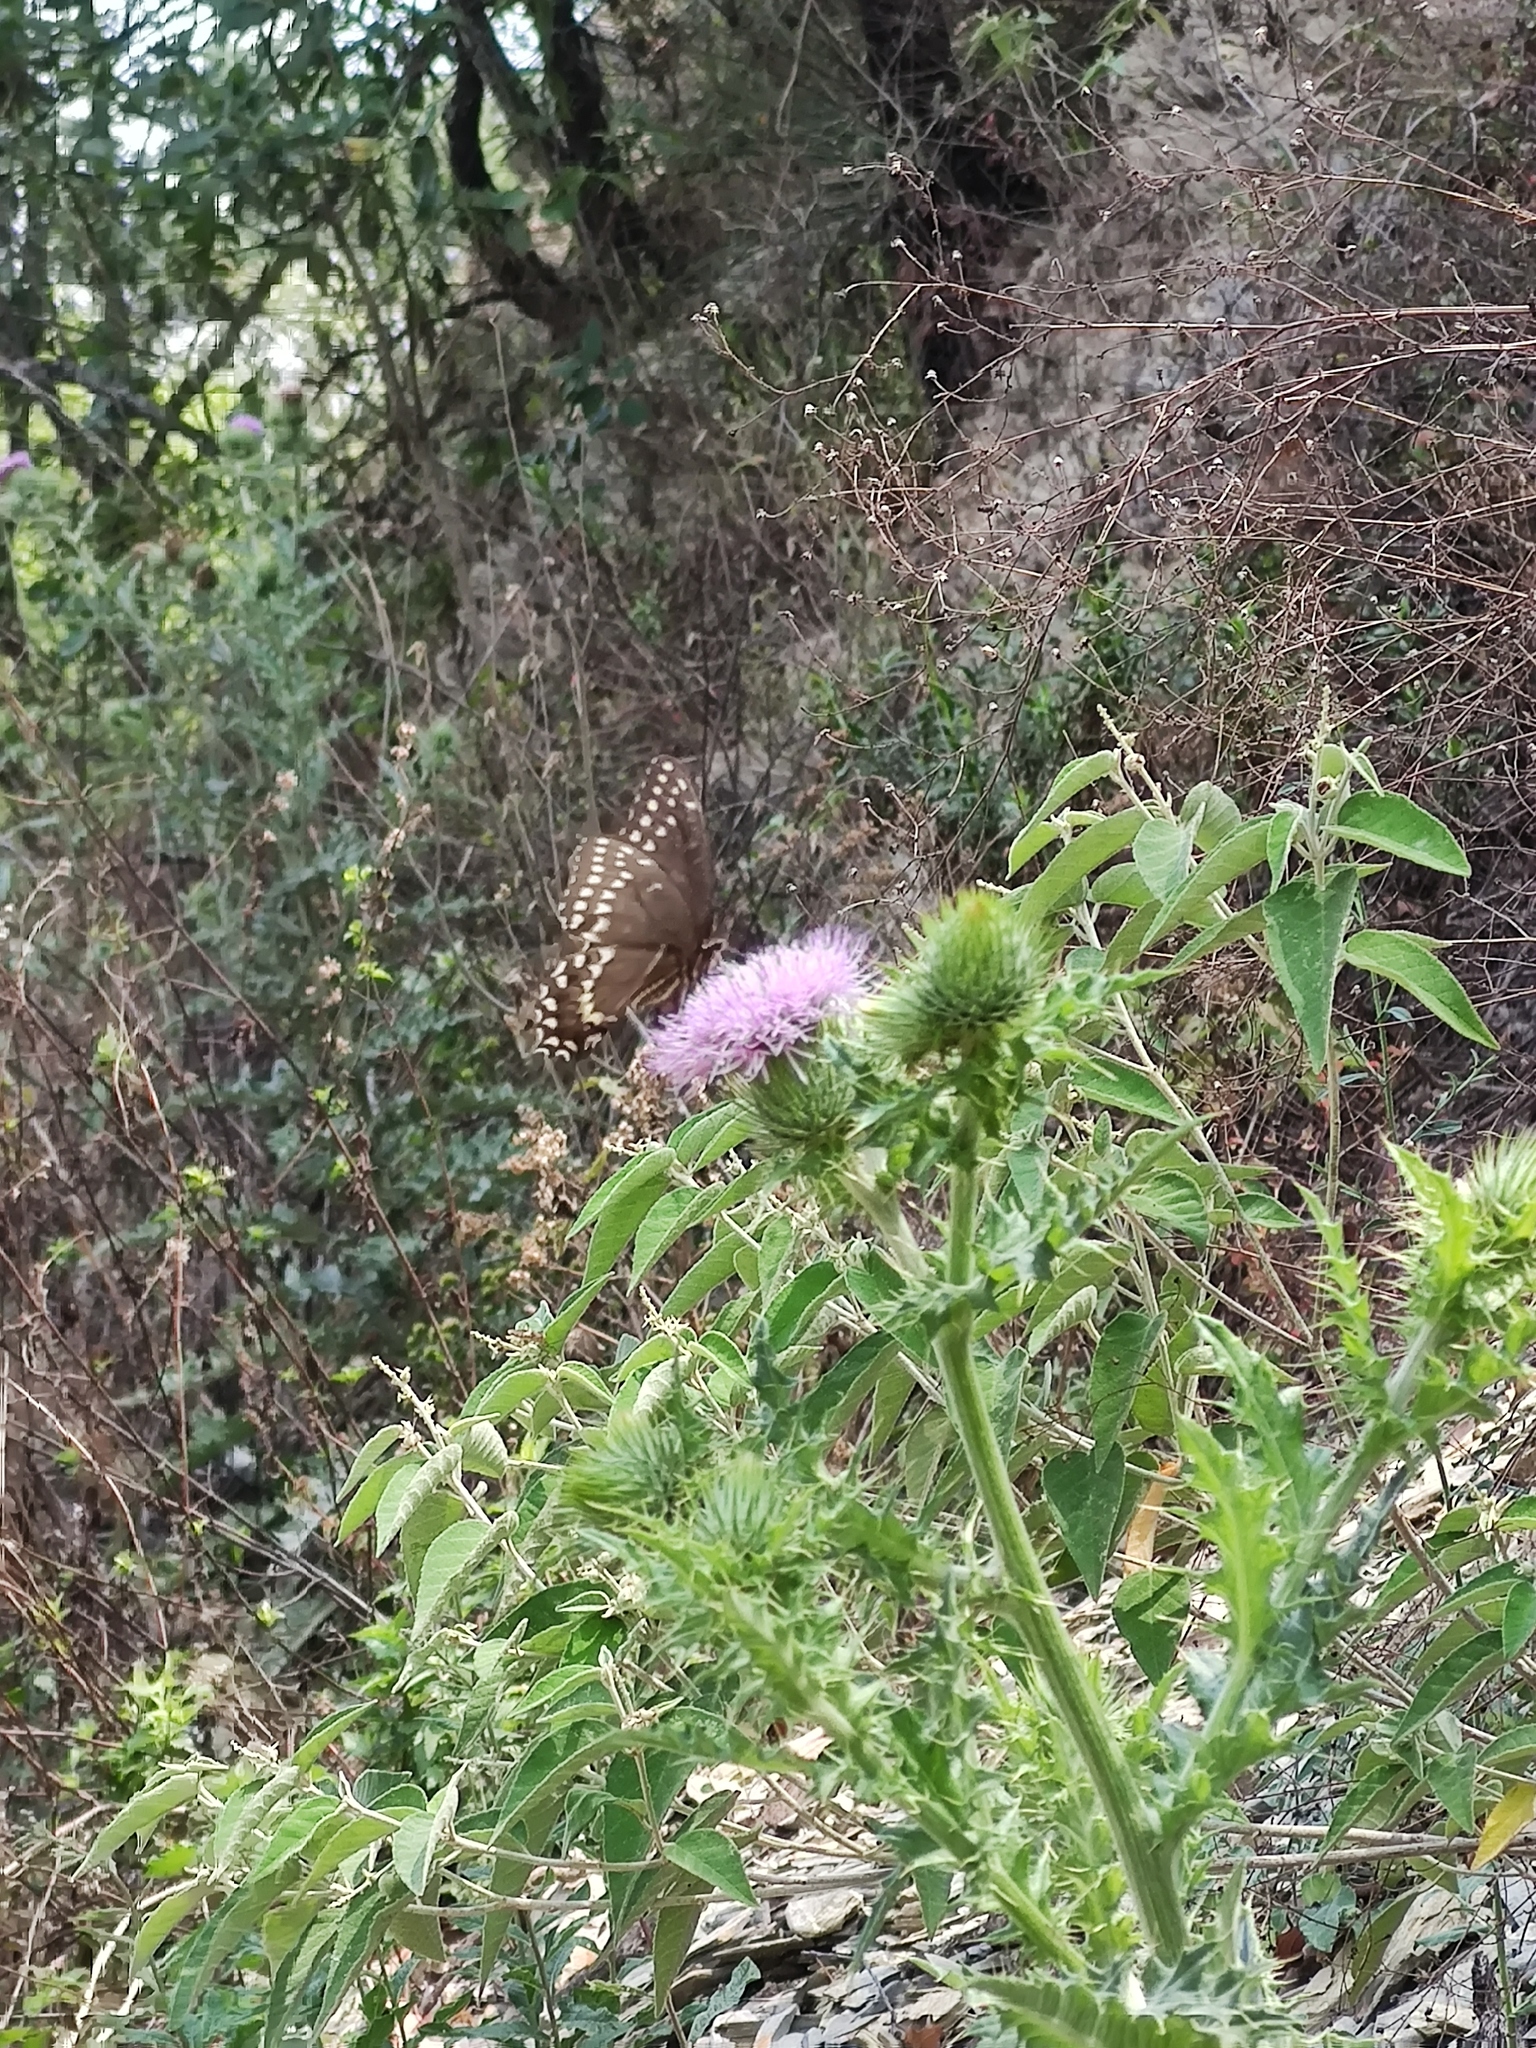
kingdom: Animalia
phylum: Arthropoda
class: Insecta
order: Lepidoptera
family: Papilionidae
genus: Papilio
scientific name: Papilio palamedes
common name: Palamedes swallowtail
